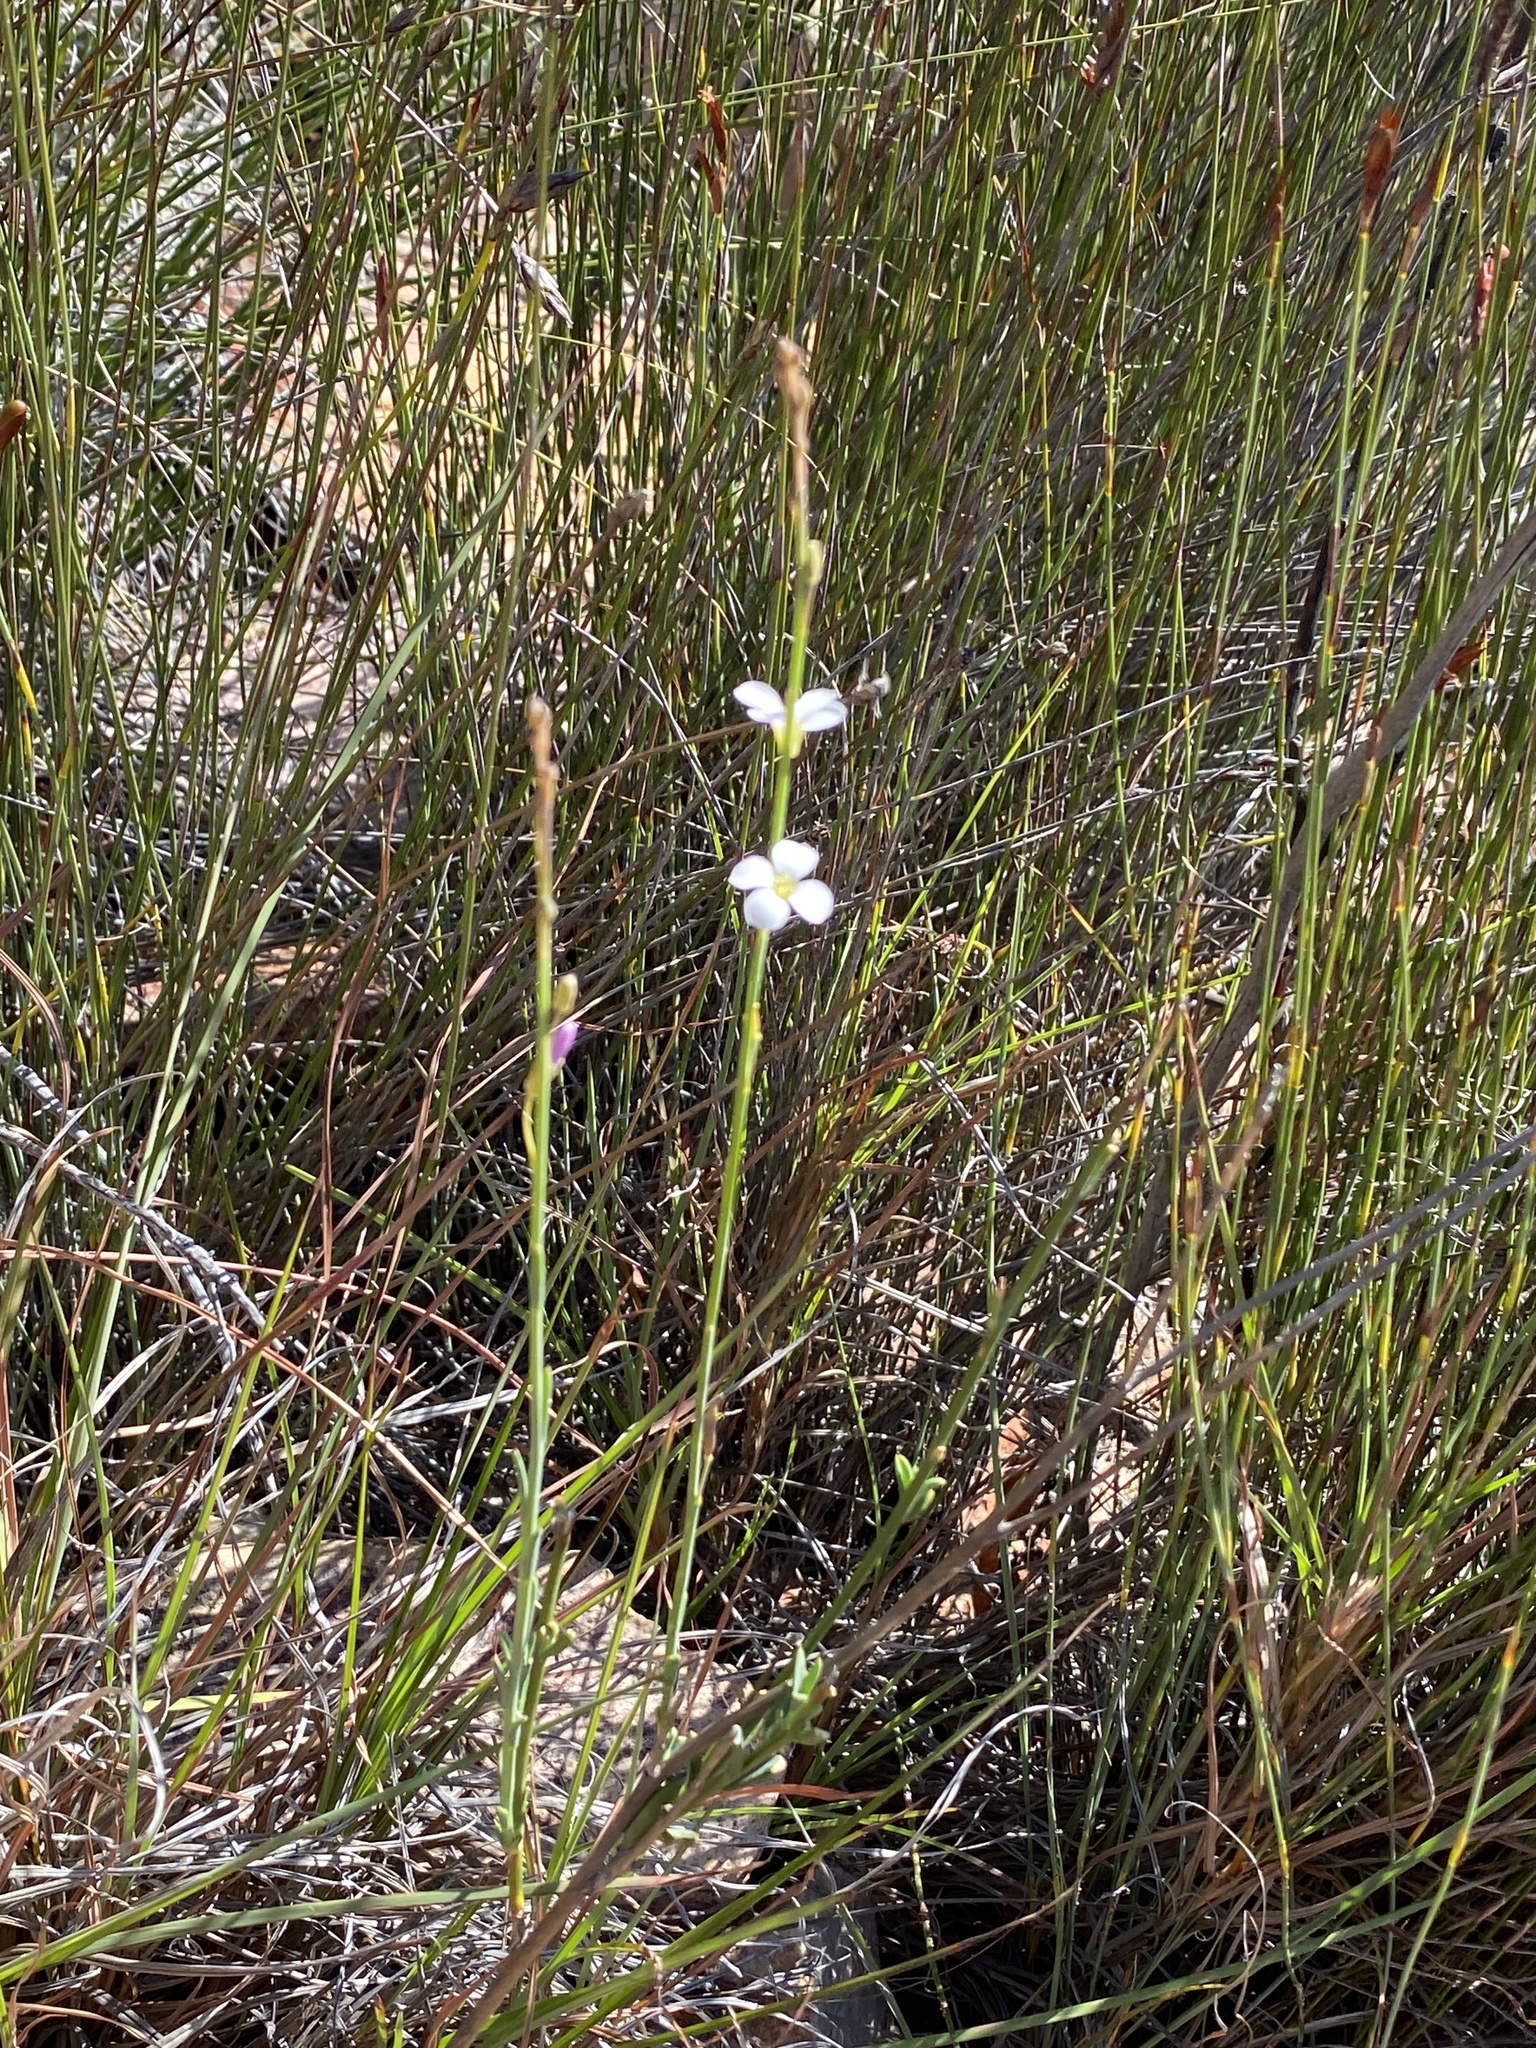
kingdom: Plantae
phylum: Tracheophyta
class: Magnoliopsida
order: Brassicales
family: Brassicaceae
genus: Heliophila
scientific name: Heliophila glauca
